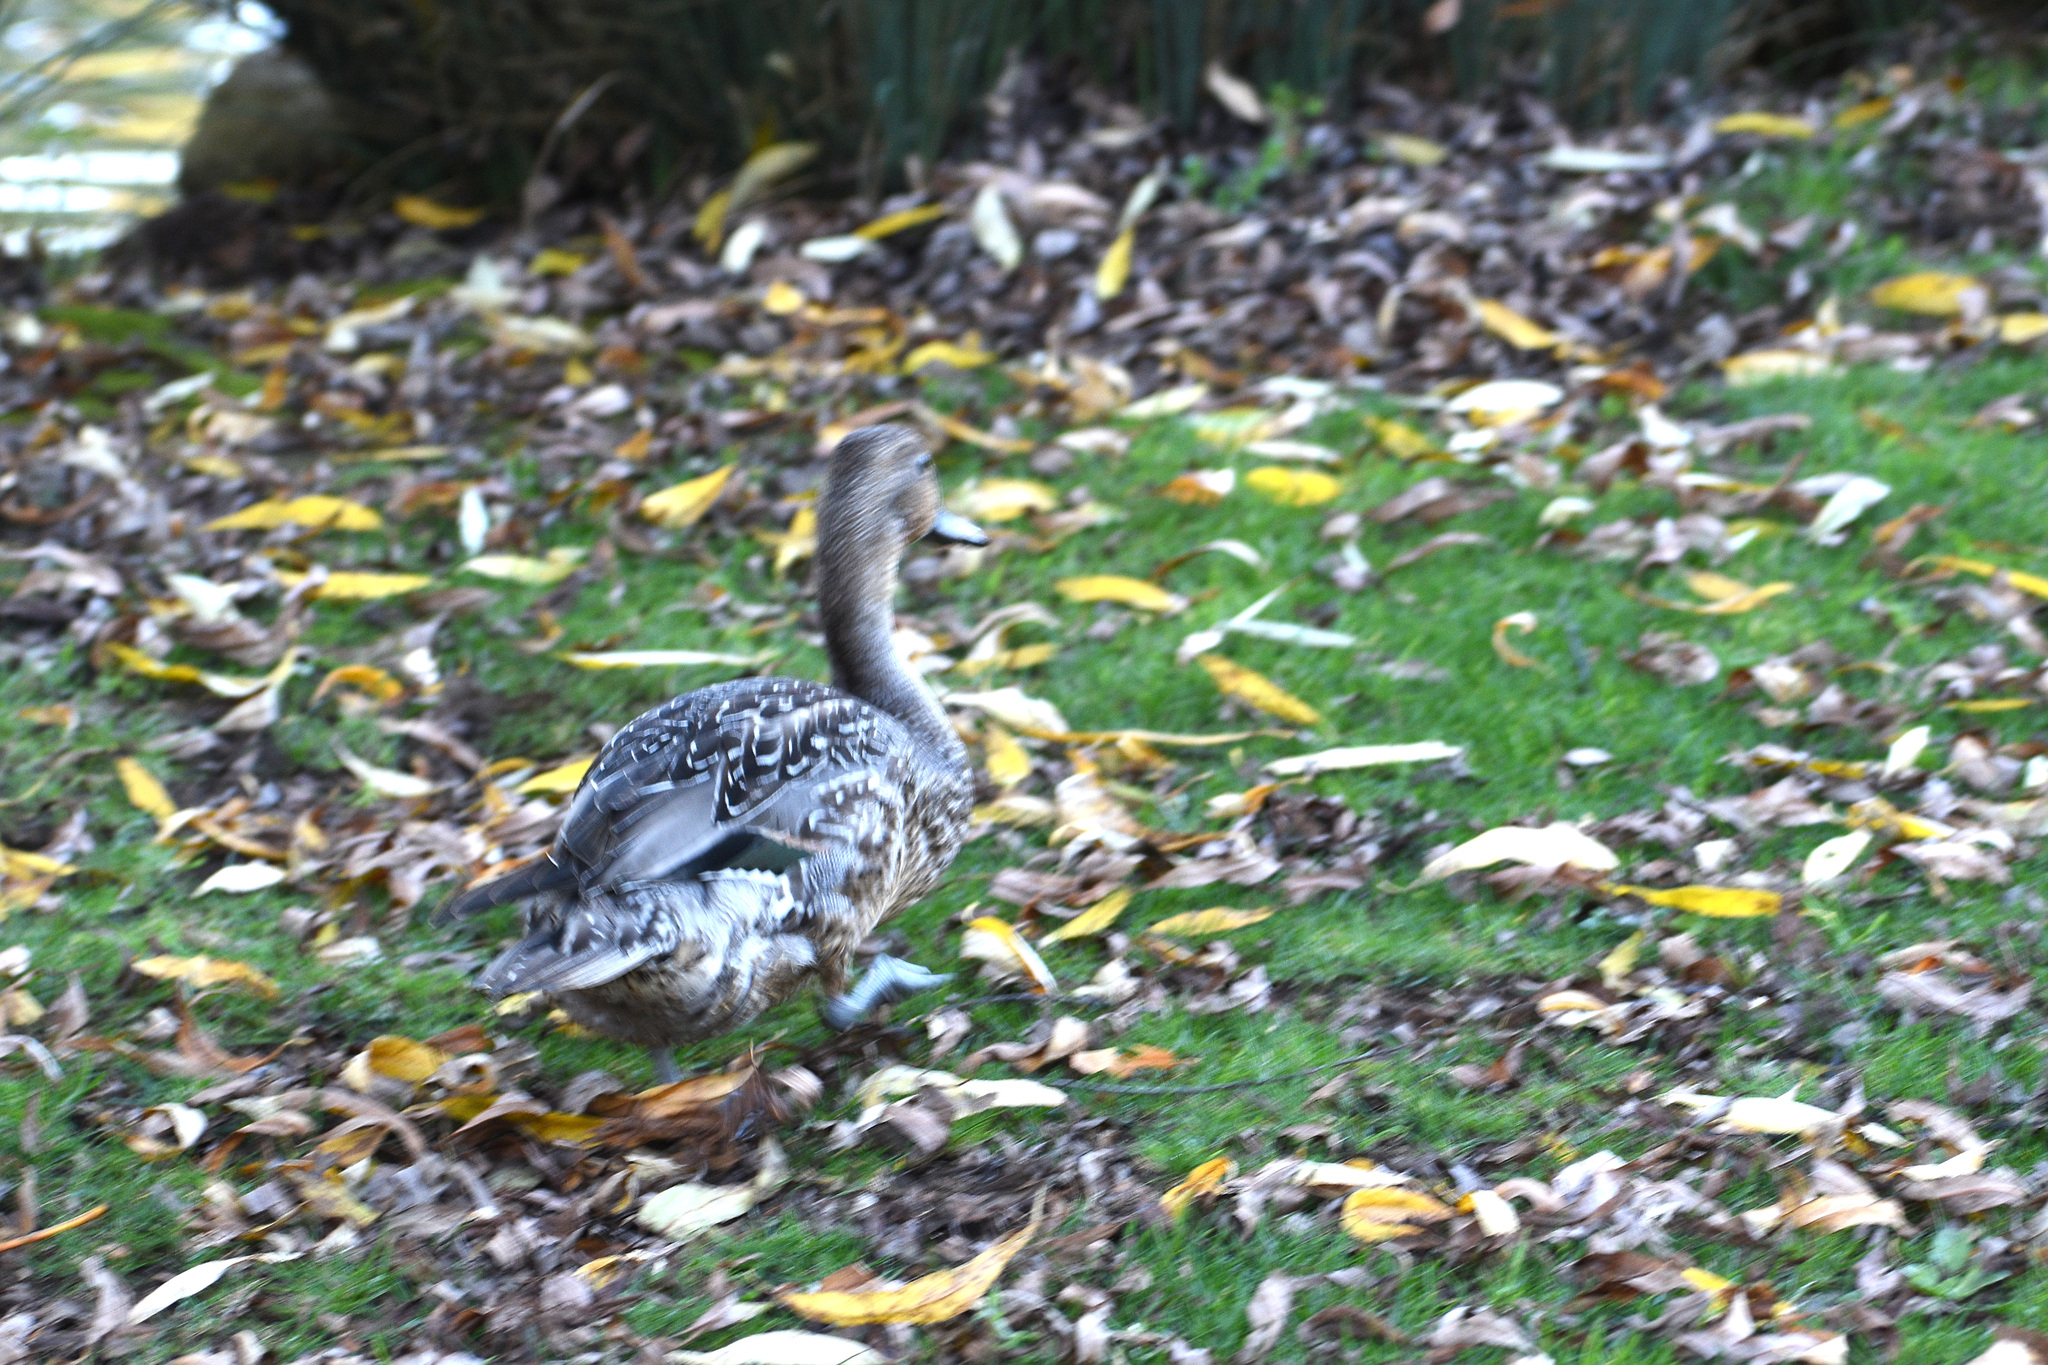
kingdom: Animalia
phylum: Chordata
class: Aves
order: Anseriformes
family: Anatidae
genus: Anas
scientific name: Anas acuta
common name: Northern pintail
